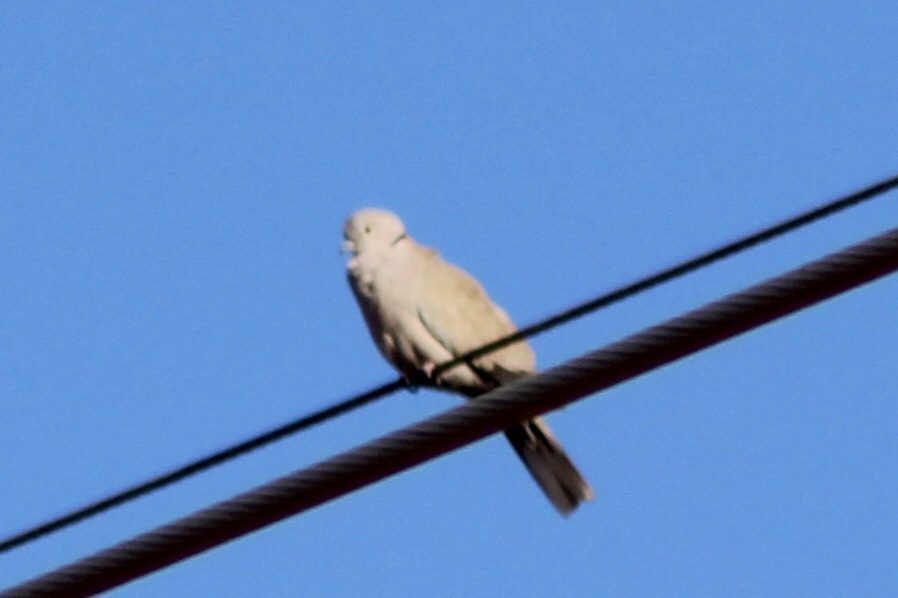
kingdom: Animalia
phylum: Chordata
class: Aves
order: Columbiformes
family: Columbidae
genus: Streptopelia
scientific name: Streptopelia decaocto
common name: Eurasian collared dove
